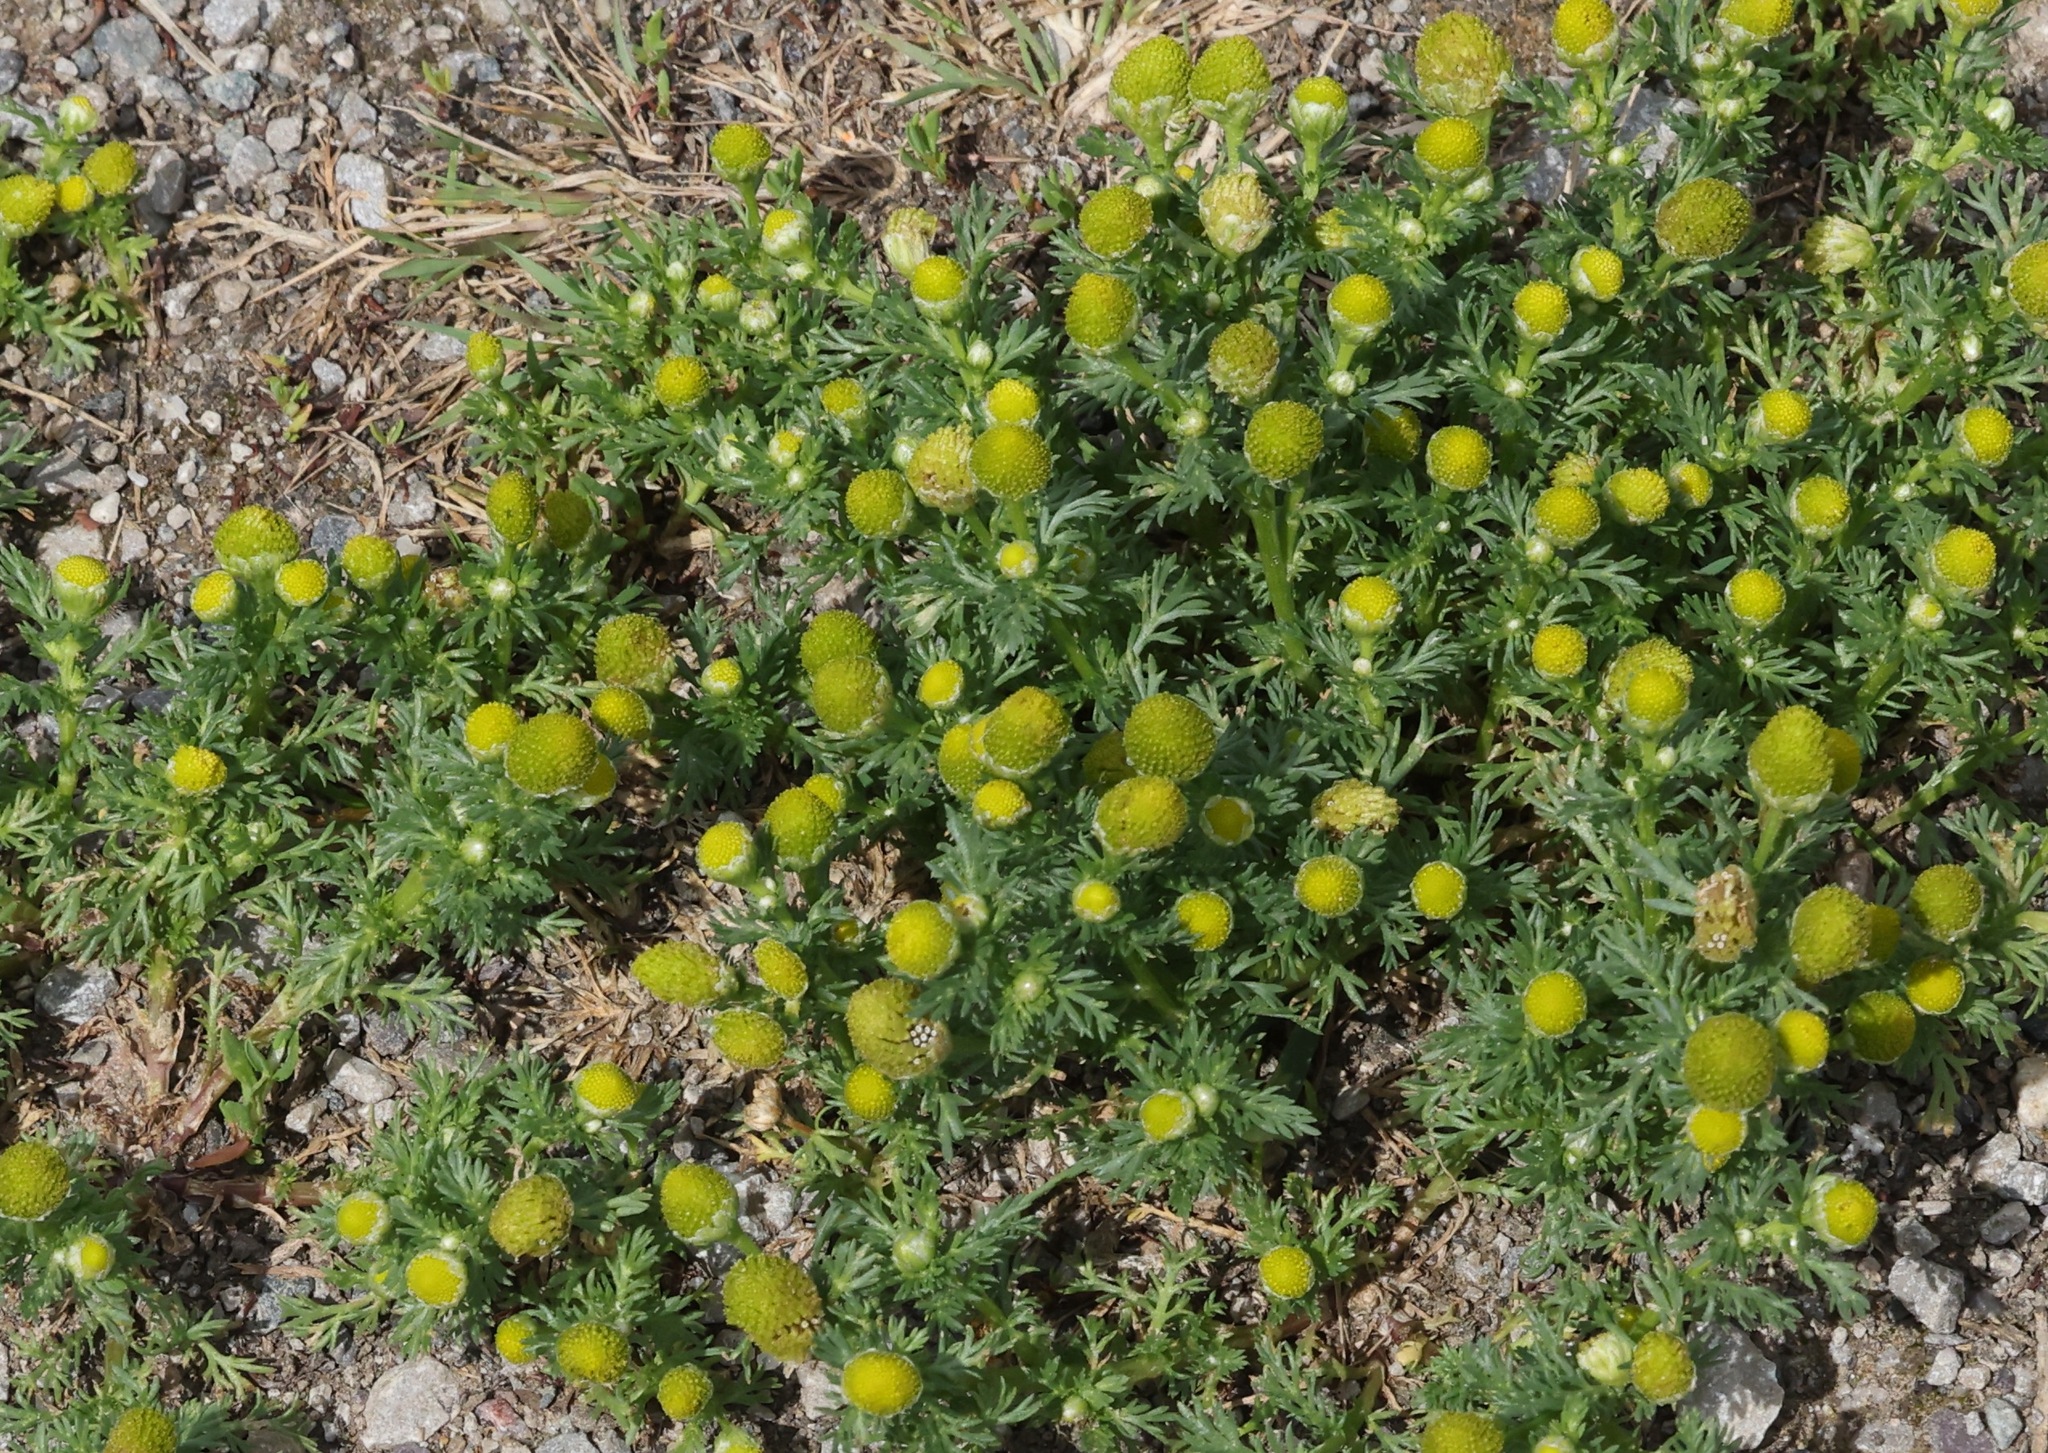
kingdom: Plantae
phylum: Tracheophyta
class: Magnoliopsida
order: Asterales
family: Asteraceae
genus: Matricaria
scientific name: Matricaria discoidea
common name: Disc mayweed
